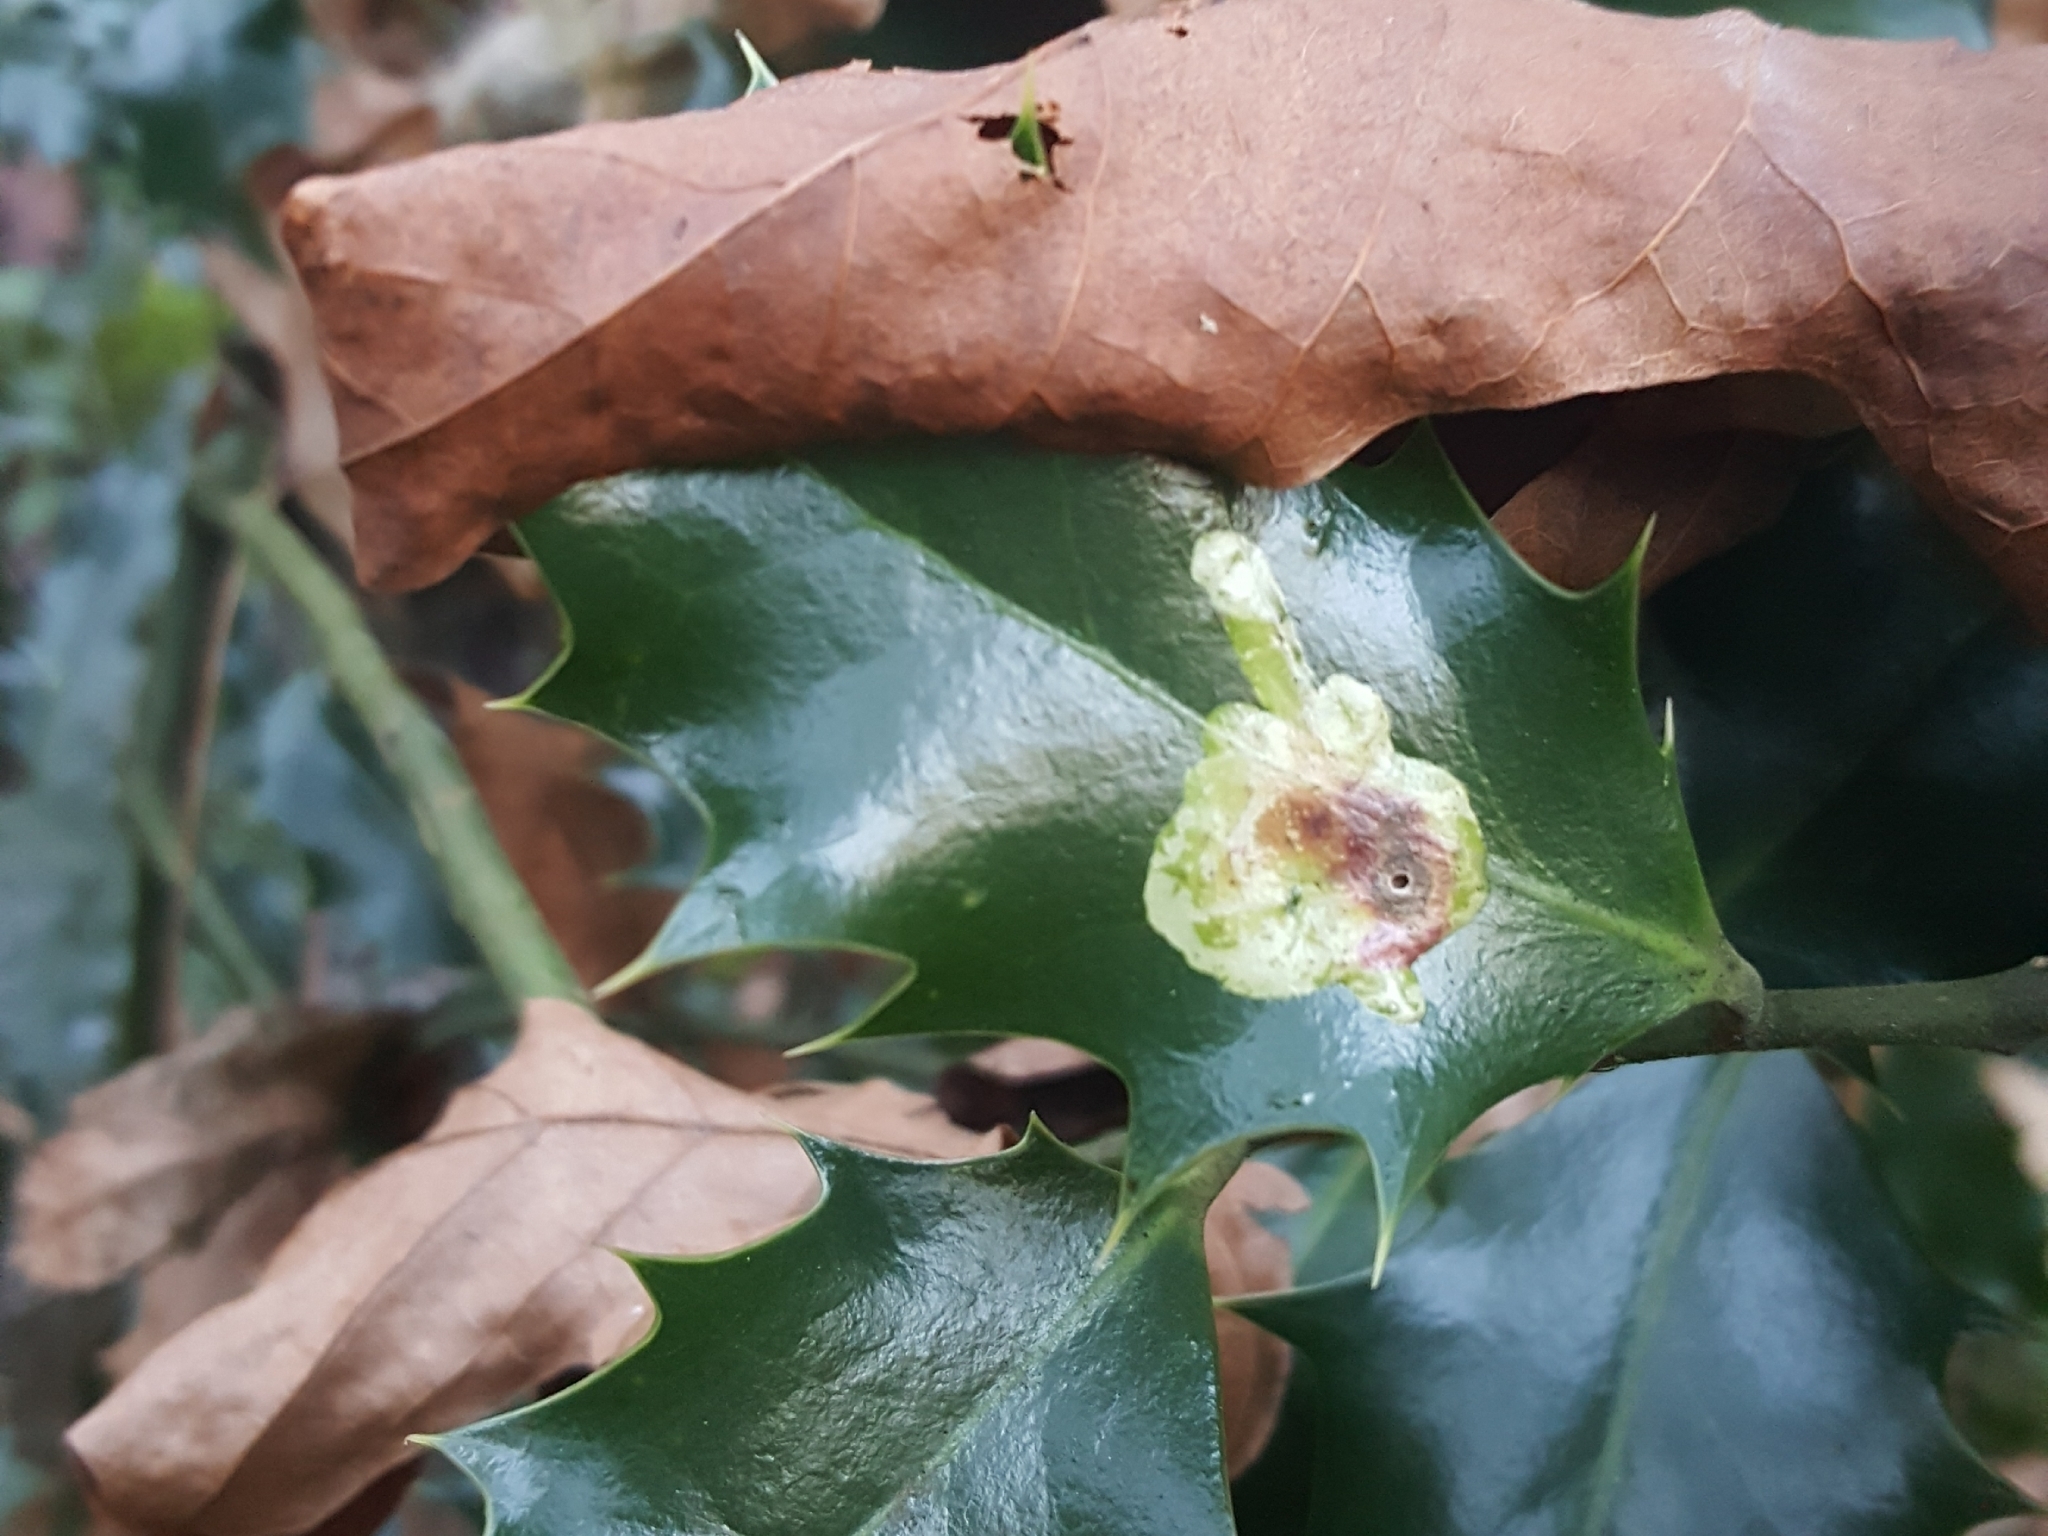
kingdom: Animalia
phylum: Arthropoda
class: Insecta
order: Diptera
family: Agromyzidae
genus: Phytomyza
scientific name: Phytomyza ilicis
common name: Holly leafminer
